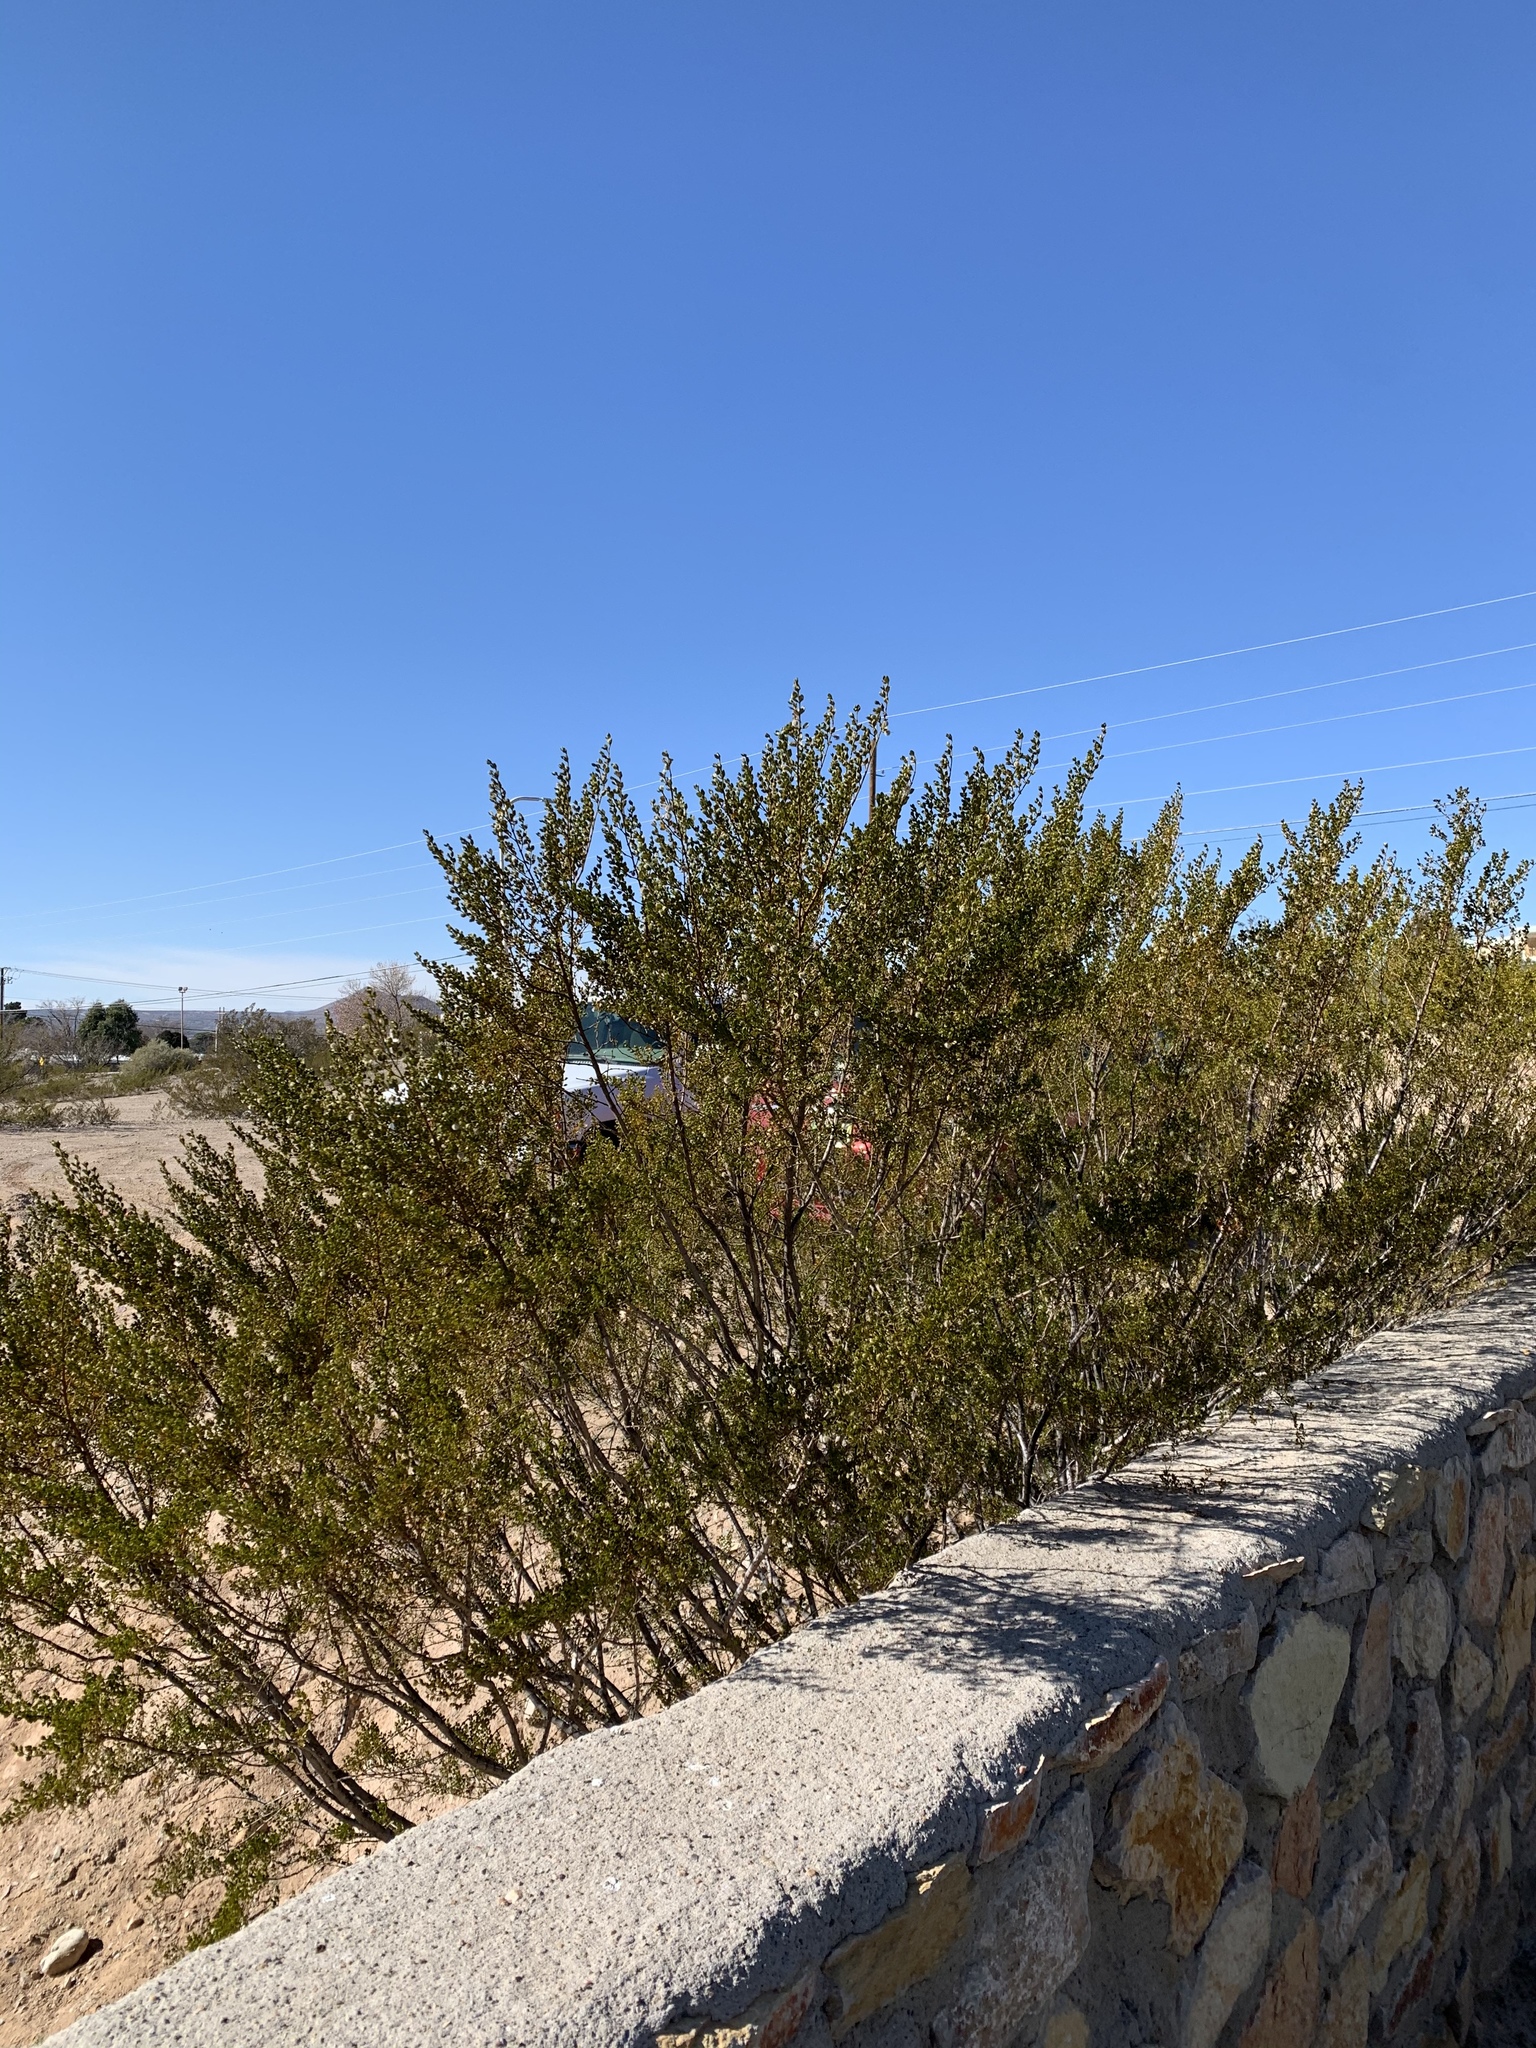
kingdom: Plantae
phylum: Tracheophyta
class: Magnoliopsida
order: Zygophyllales
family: Zygophyllaceae
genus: Larrea
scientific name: Larrea tridentata
